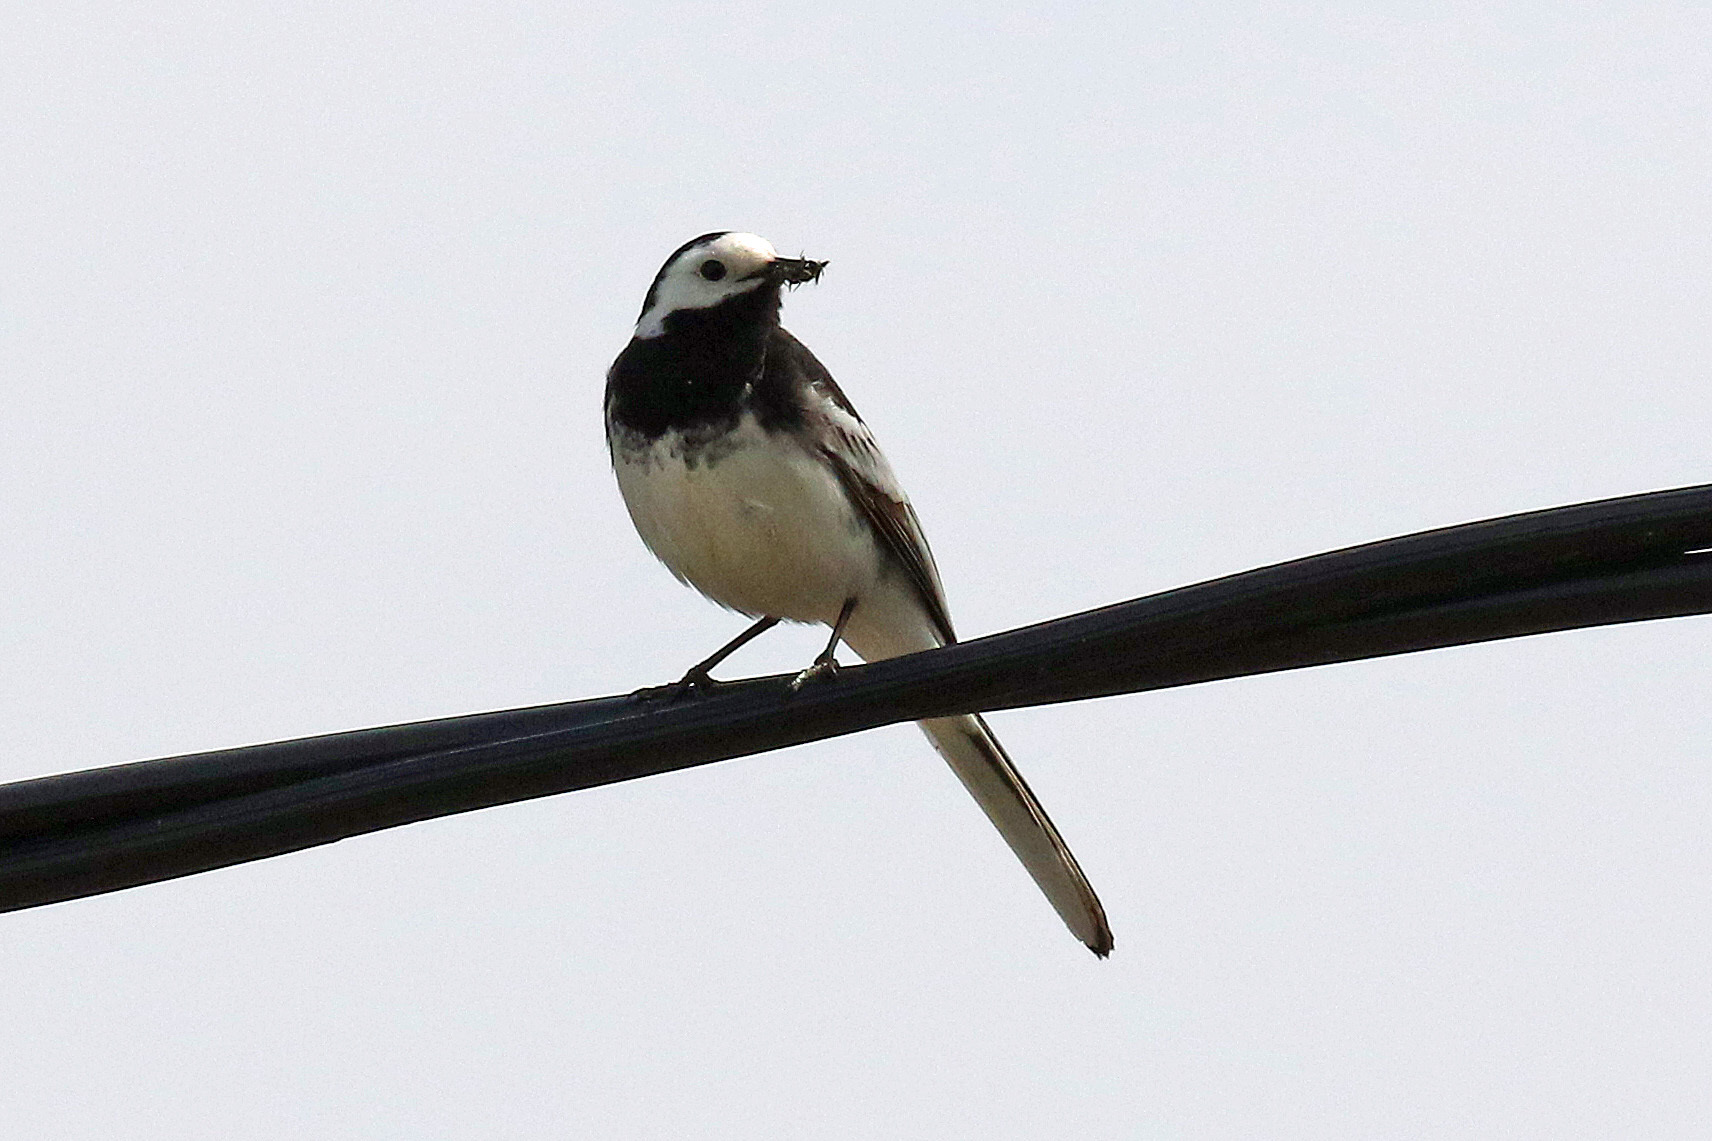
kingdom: Animalia
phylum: Chordata
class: Aves
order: Passeriformes
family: Motacillidae
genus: Motacilla
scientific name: Motacilla alba
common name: White wagtail
